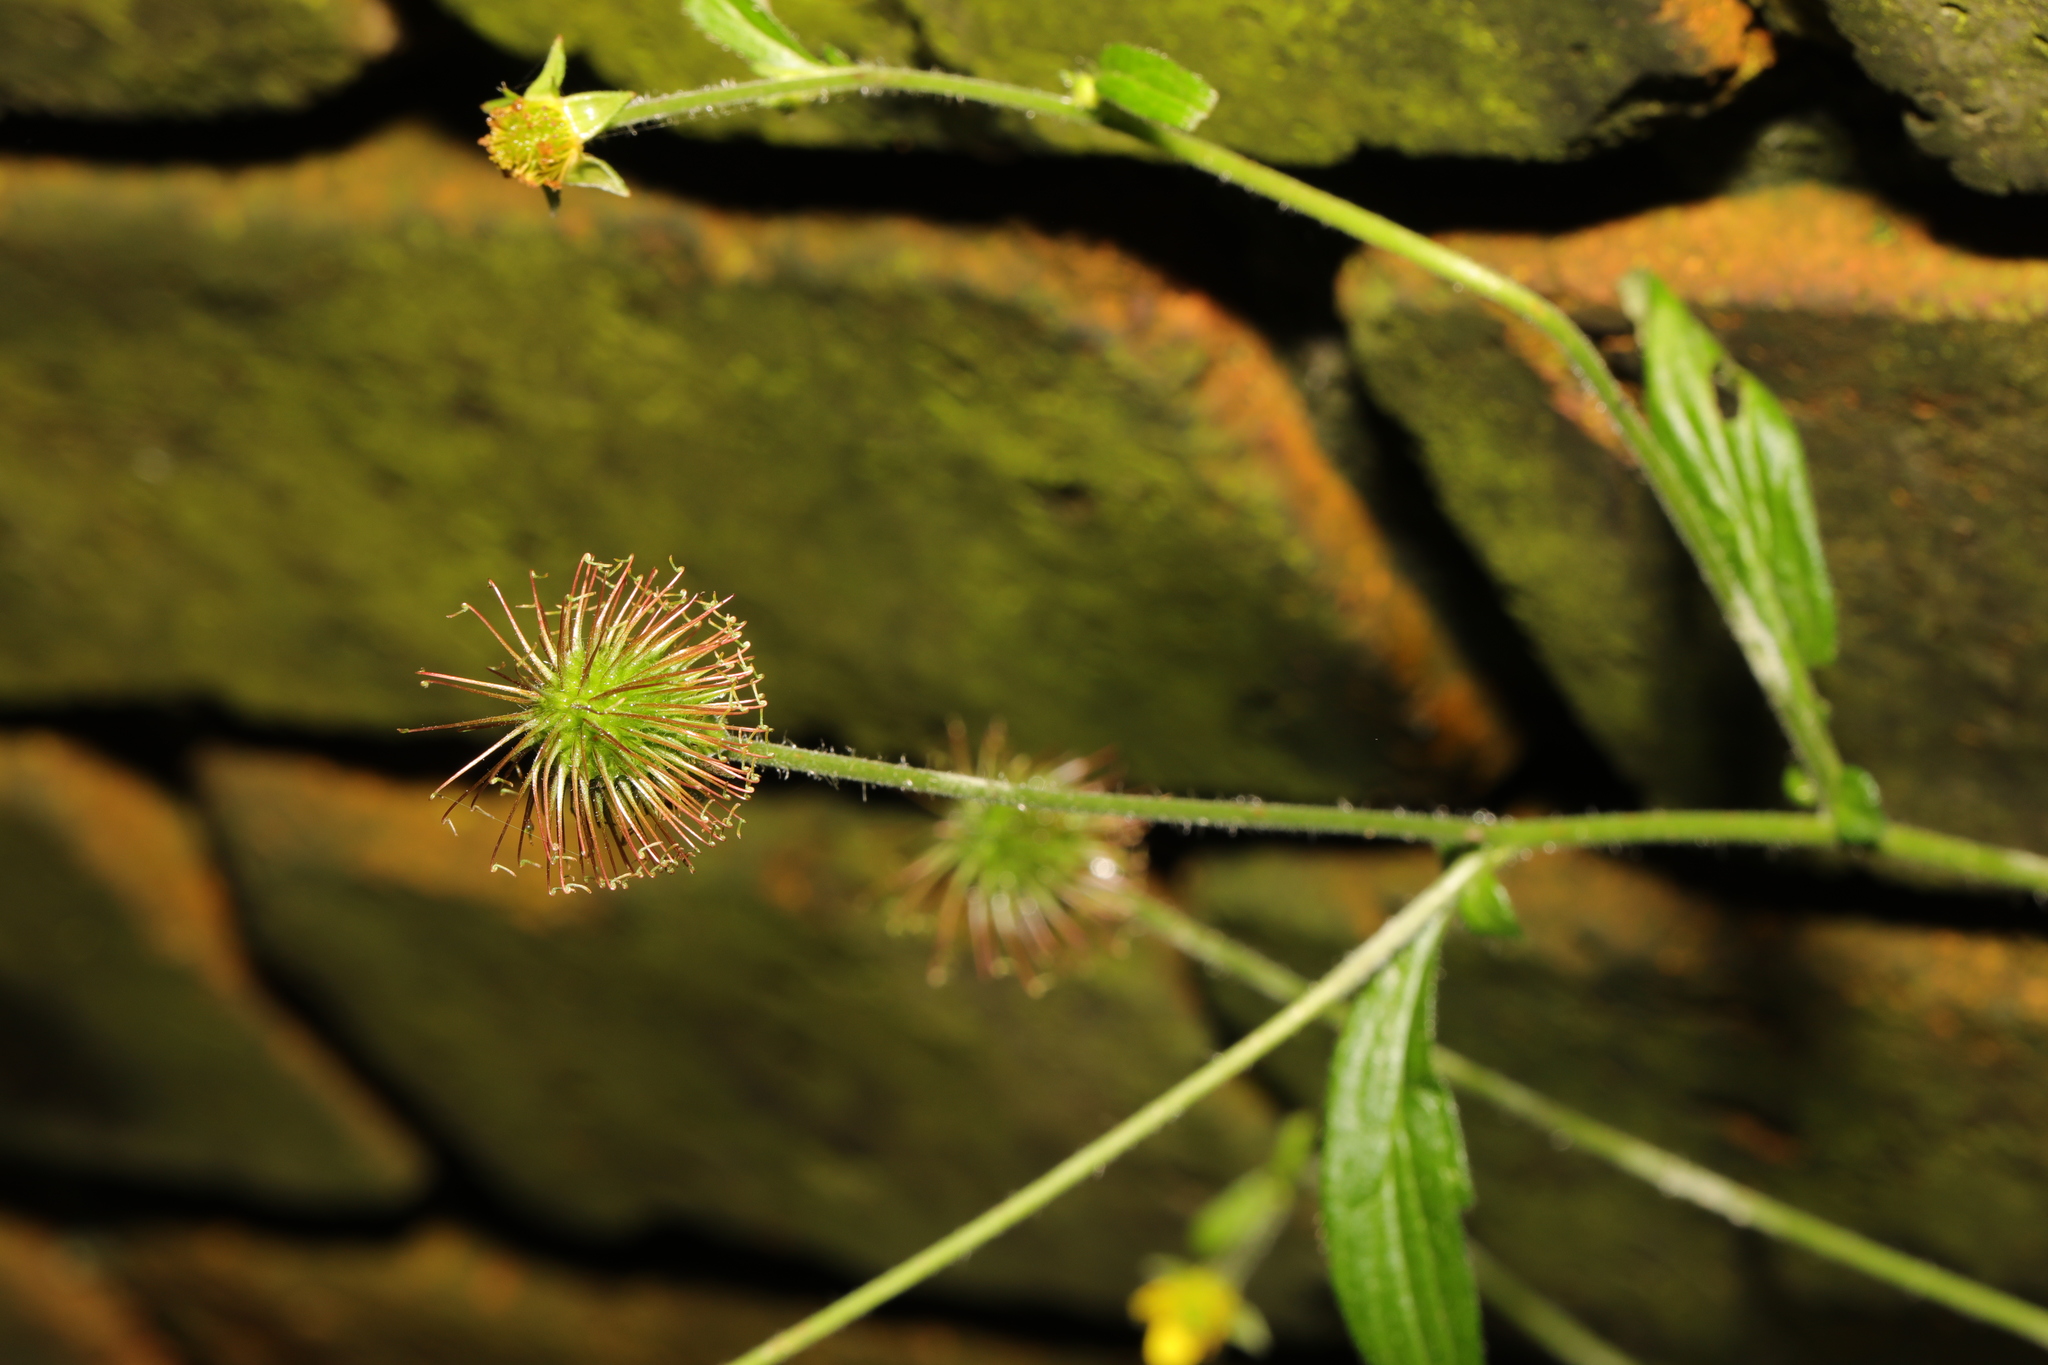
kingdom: Plantae
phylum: Tracheophyta
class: Magnoliopsida
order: Rosales
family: Rosaceae
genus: Geum
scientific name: Geum urbanum
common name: Wood avens
